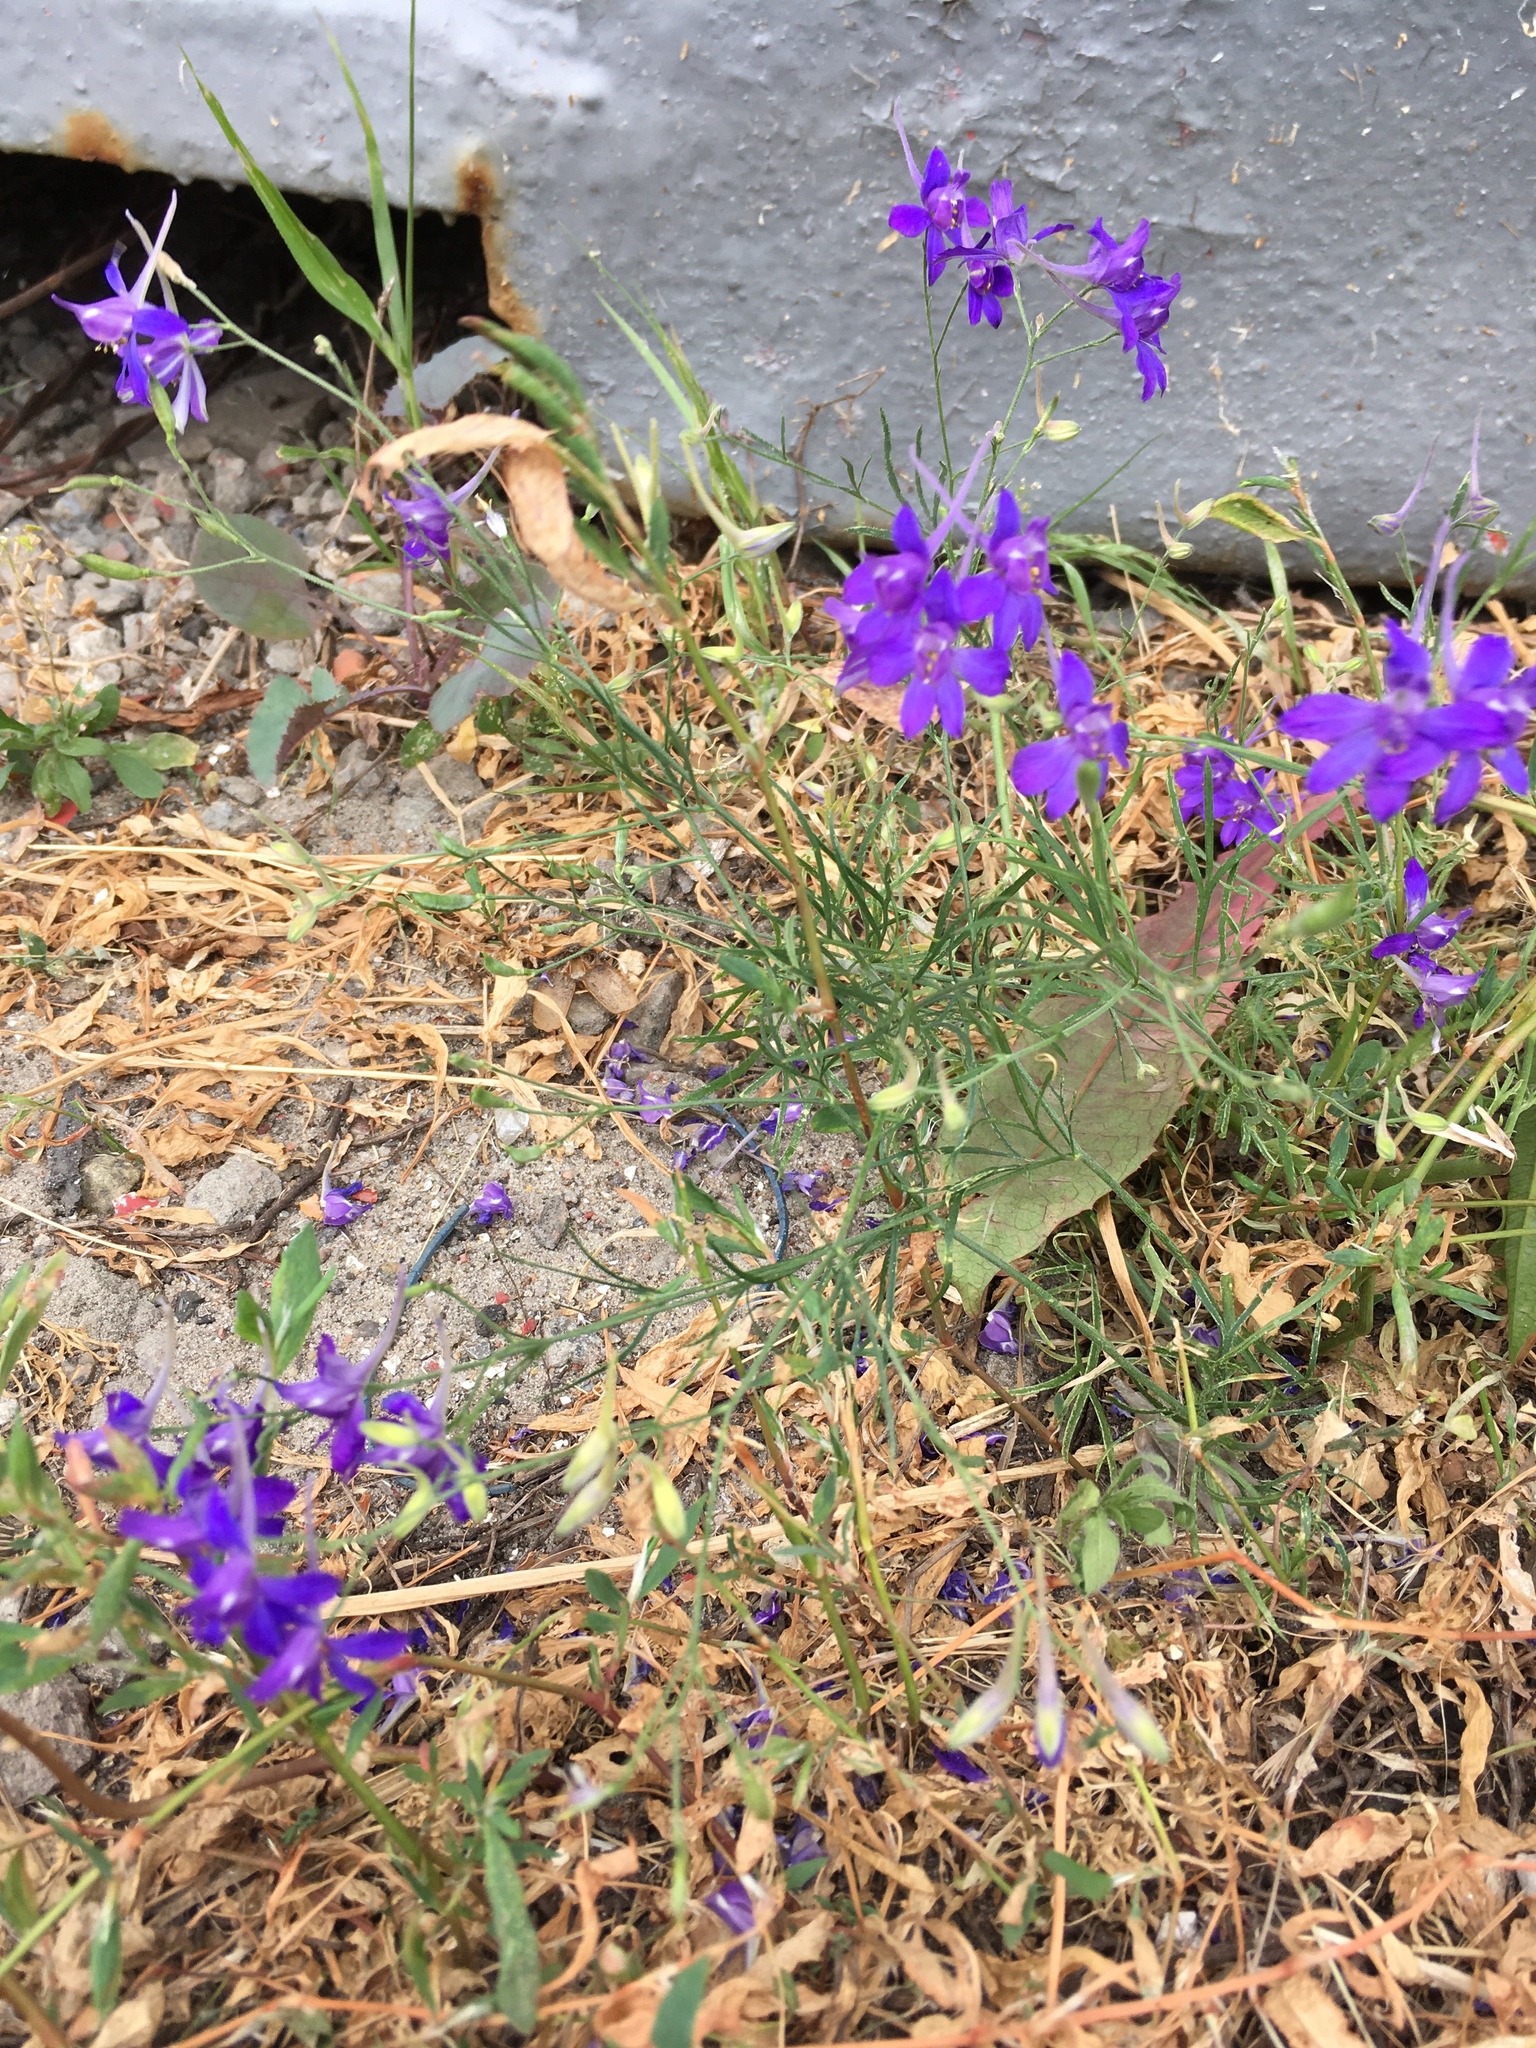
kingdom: Plantae
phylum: Tracheophyta
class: Magnoliopsida
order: Ranunculales
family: Ranunculaceae
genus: Delphinium
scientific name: Delphinium consolida
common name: Branching larkspur
